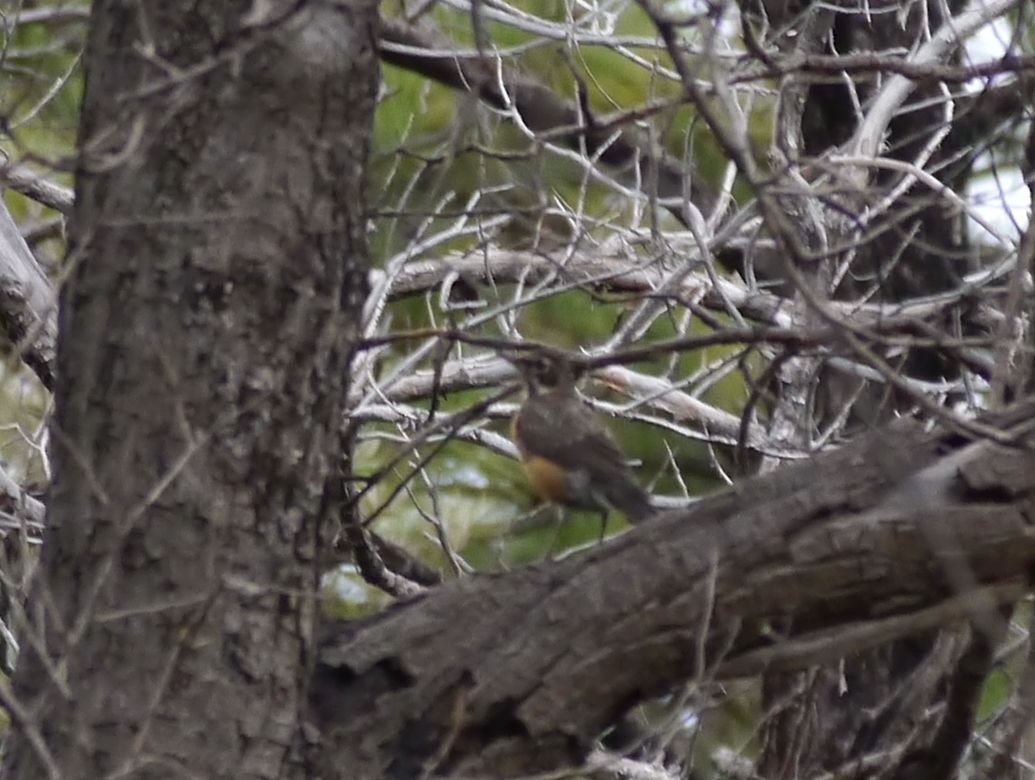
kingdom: Animalia
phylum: Chordata
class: Aves
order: Passeriformes
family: Turdidae
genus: Turdus
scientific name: Turdus migratorius
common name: American robin
